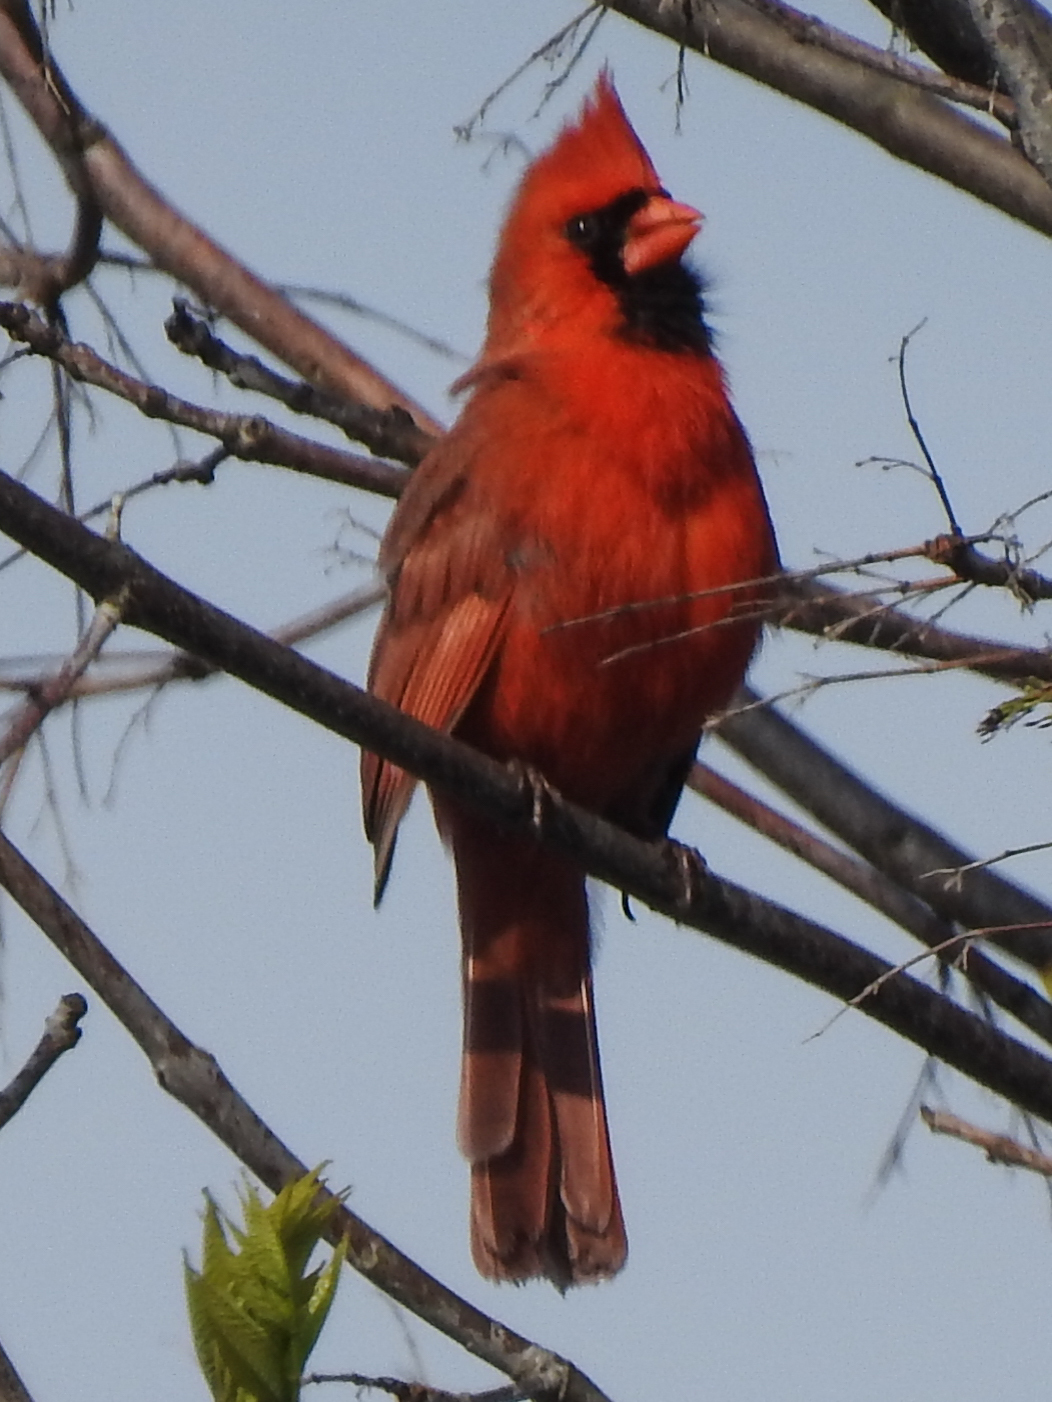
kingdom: Animalia
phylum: Chordata
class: Aves
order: Passeriformes
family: Cardinalidae
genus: Cardinalis
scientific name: Cardinalis cardinalis
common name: Northern cardinal
